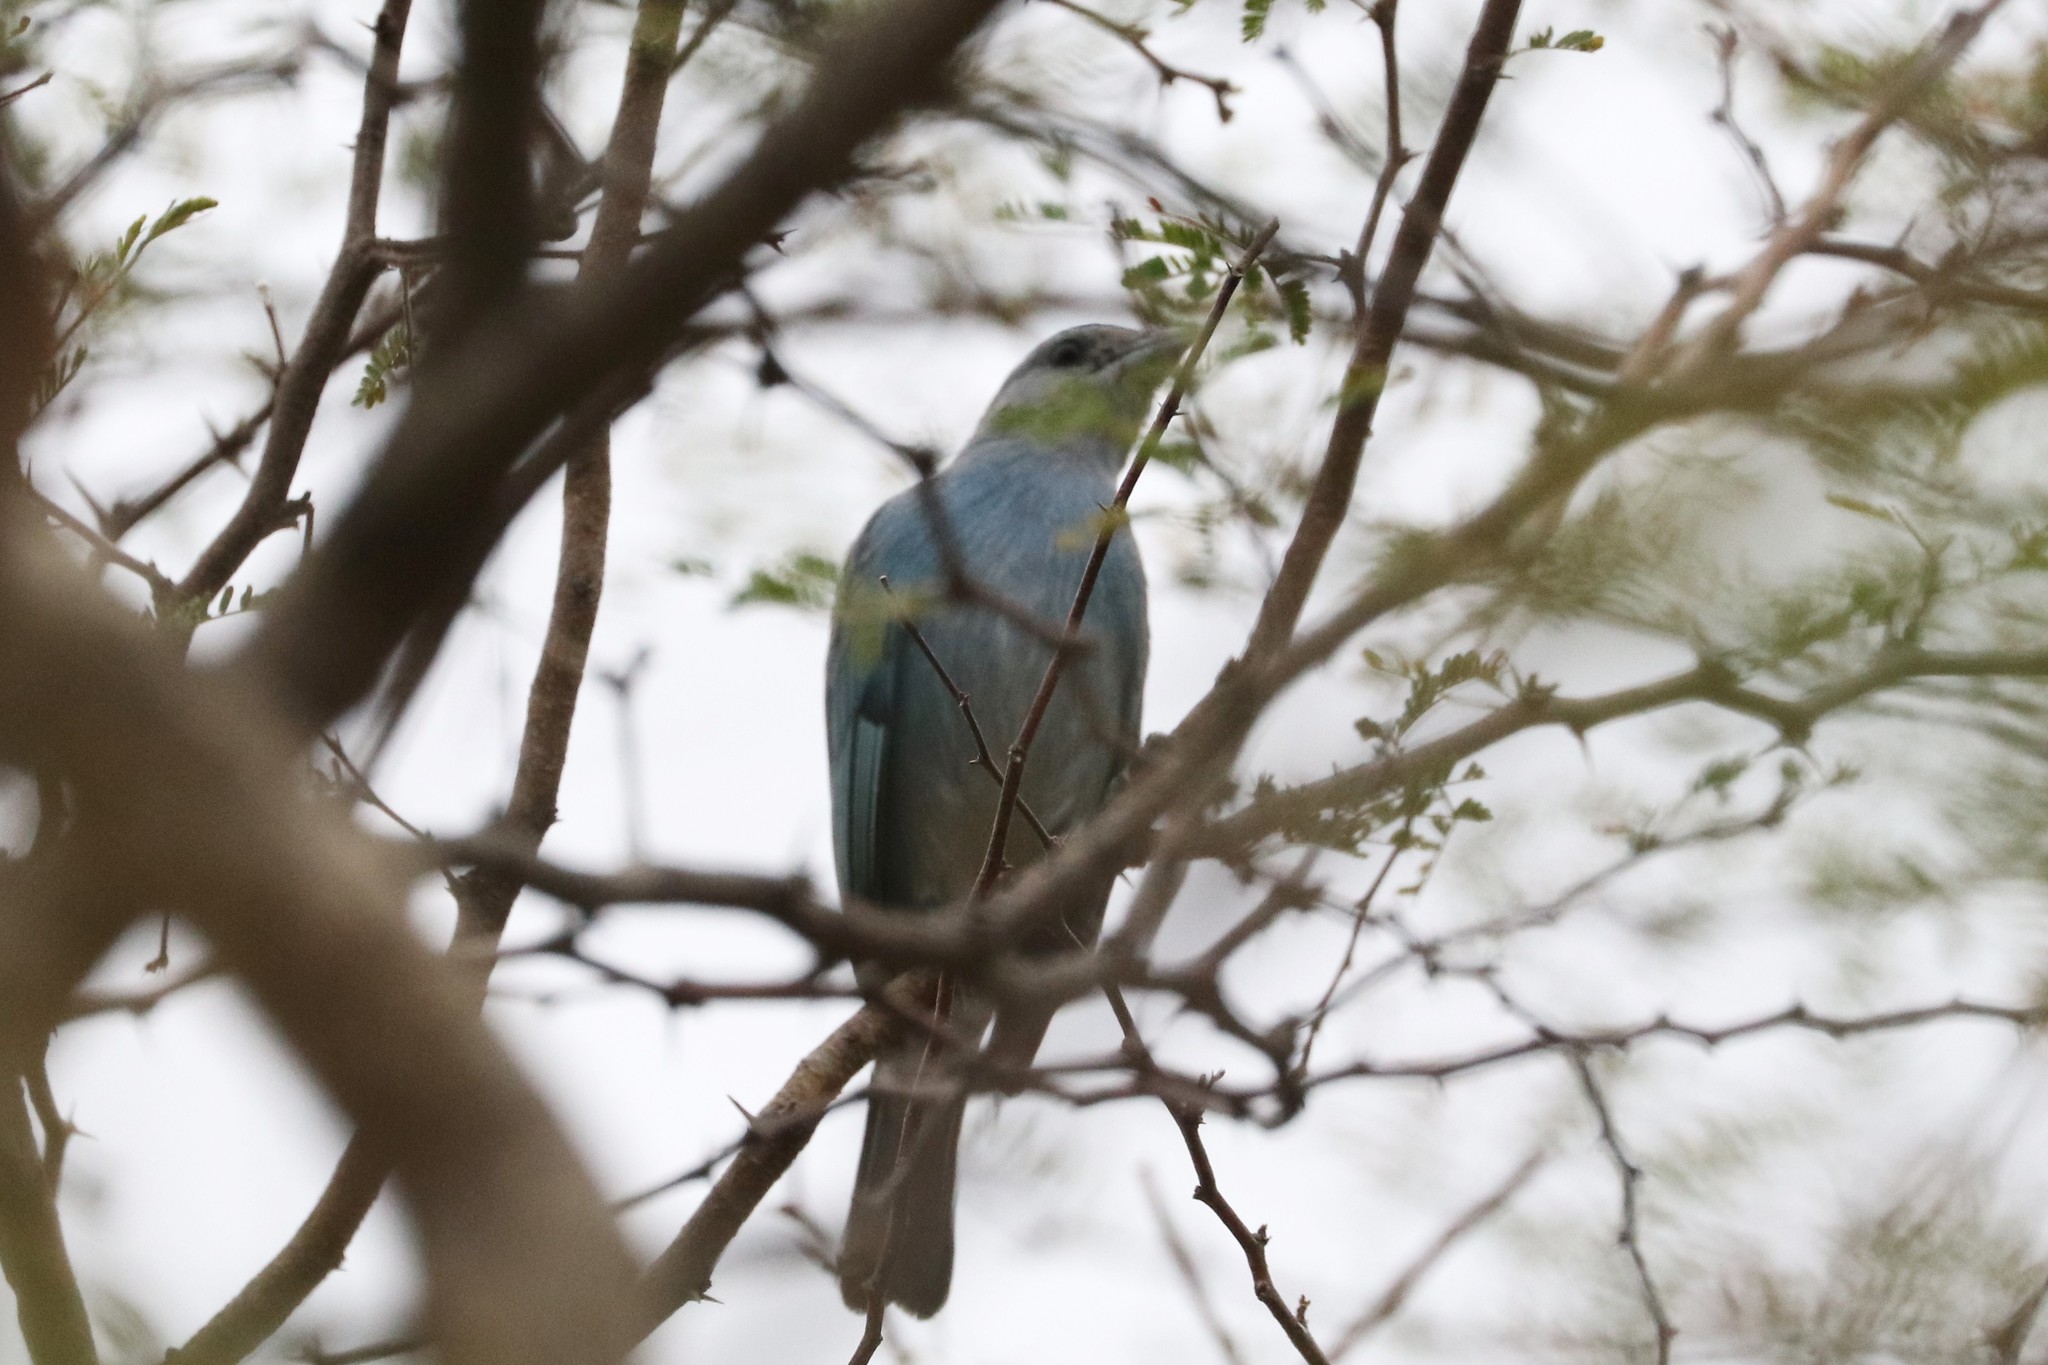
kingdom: Animalia
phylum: Chordata
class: Aves
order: Passeriformes
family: Thraupidae
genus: Thraupis
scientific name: Thraupis glaucocolpa
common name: Glaucous tanager
